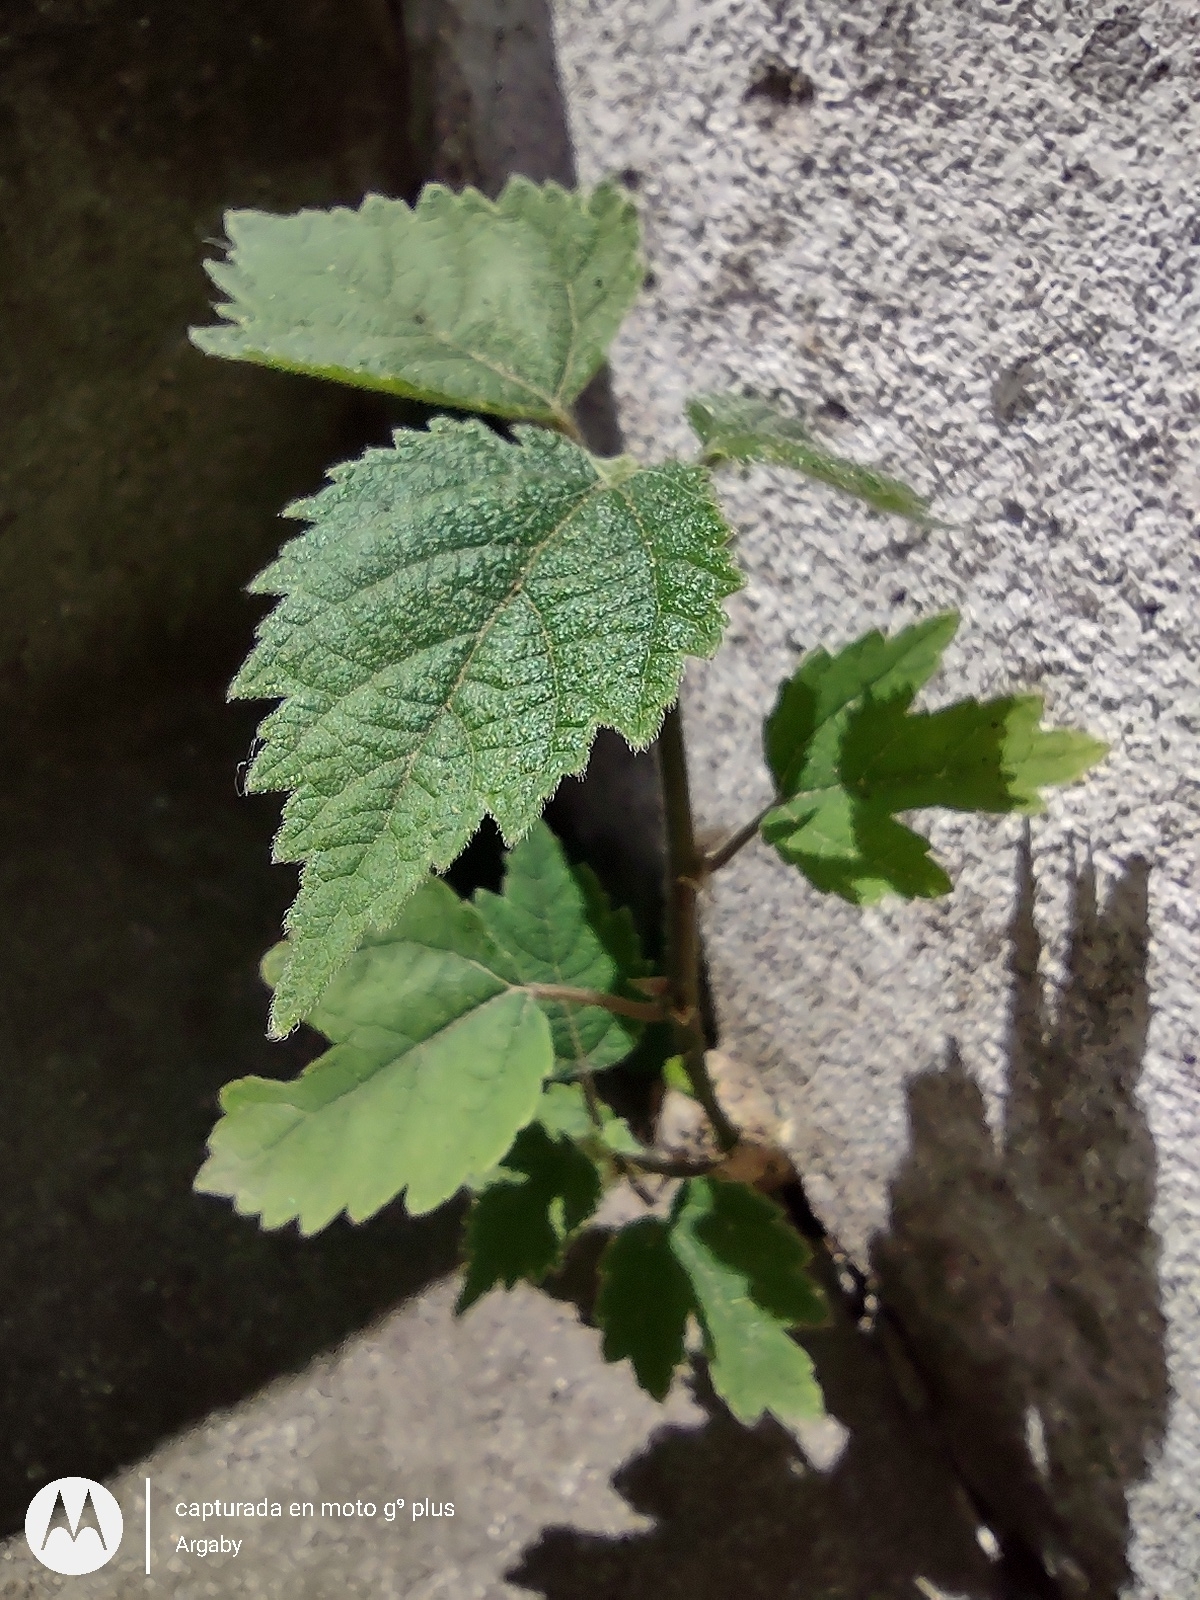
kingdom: Plantae
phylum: Tracheophyta
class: Magnoliopsida
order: Rosales
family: Moraceae
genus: Broussonetia
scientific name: Broussonetia papyrifera
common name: Paper mulberry
